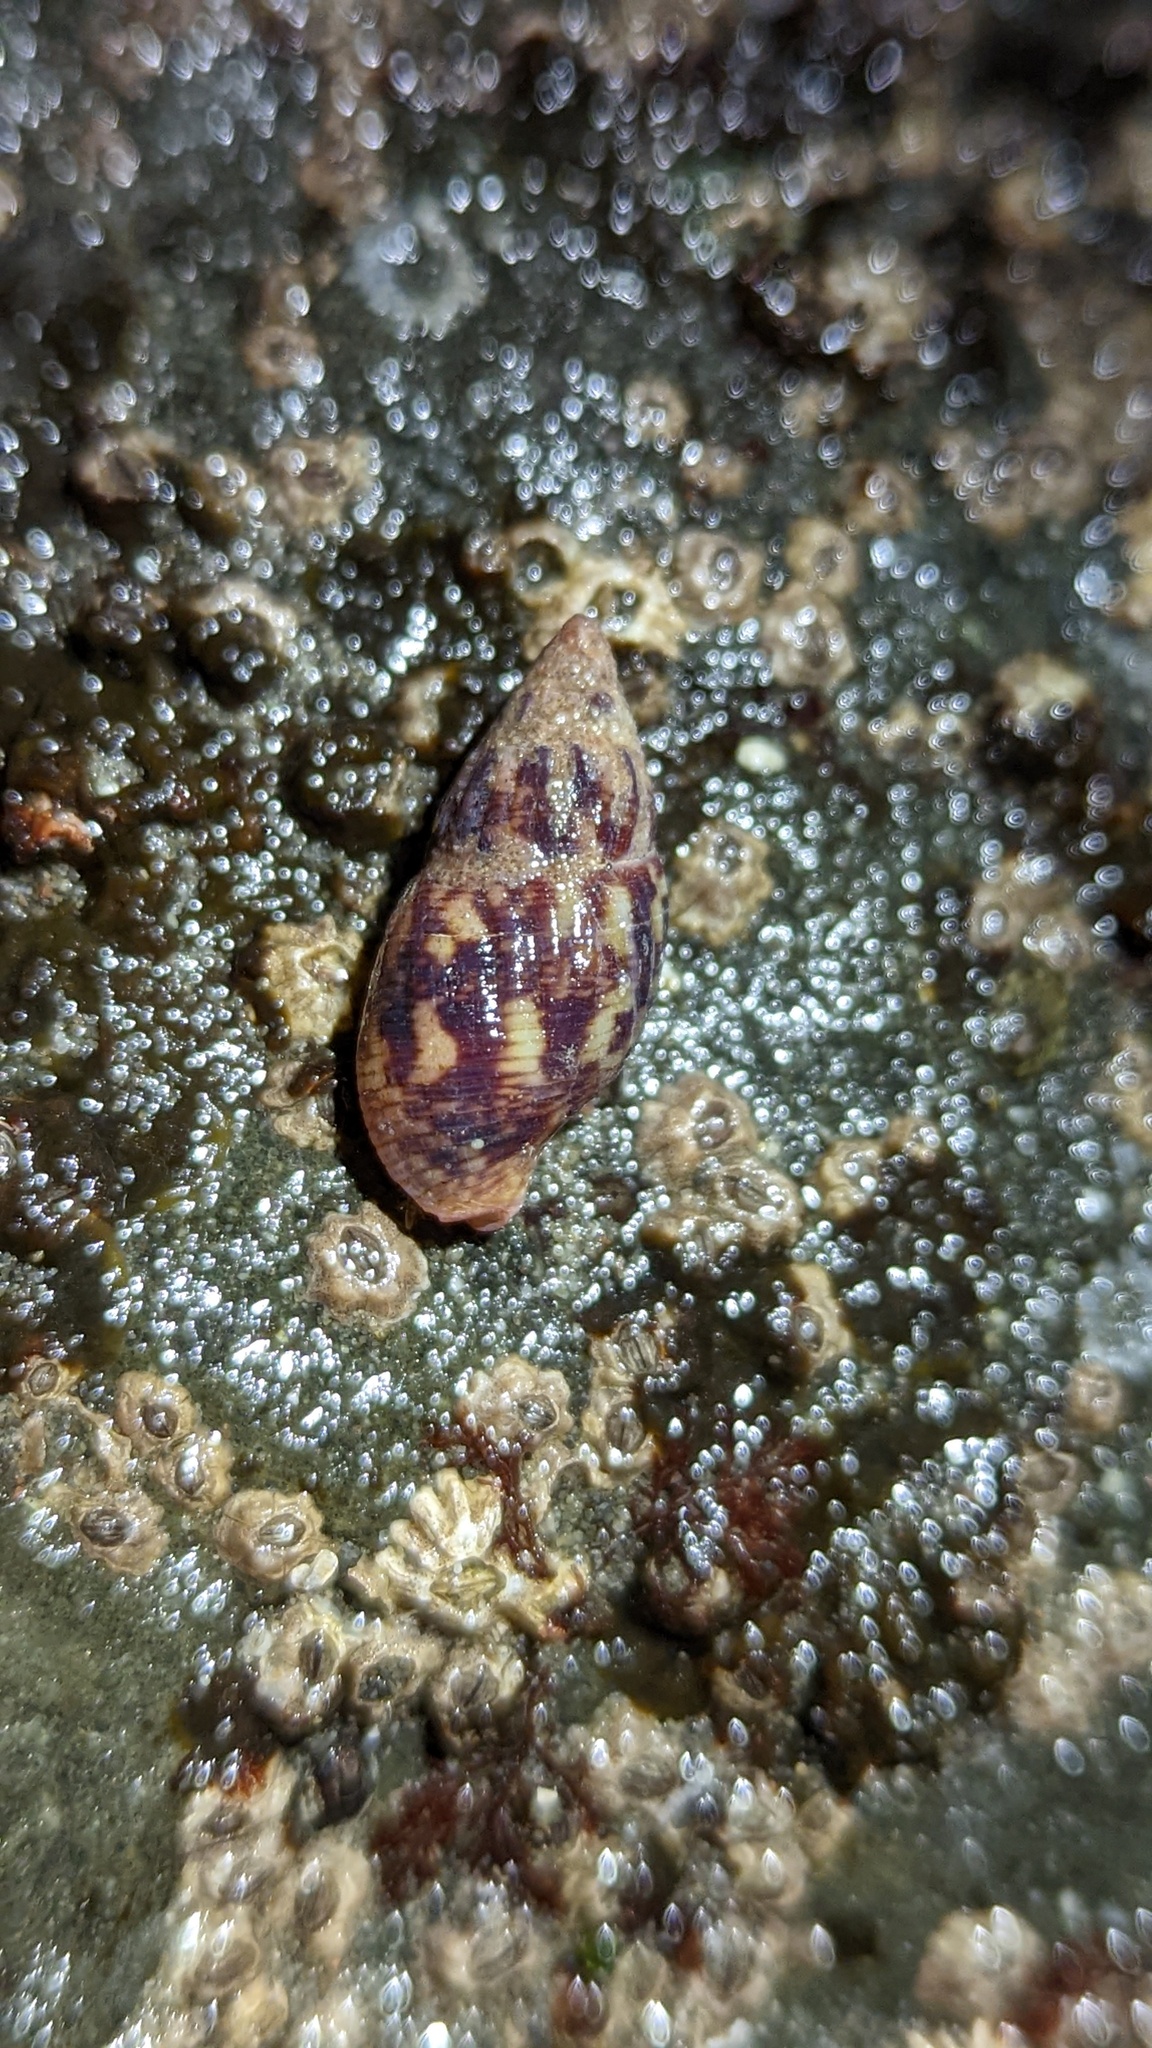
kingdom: Animalia
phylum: Mollusca
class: Gastropoda
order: Neogastropoda
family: Columbellidae
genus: Amphissa
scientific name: Amphissa columbiana
